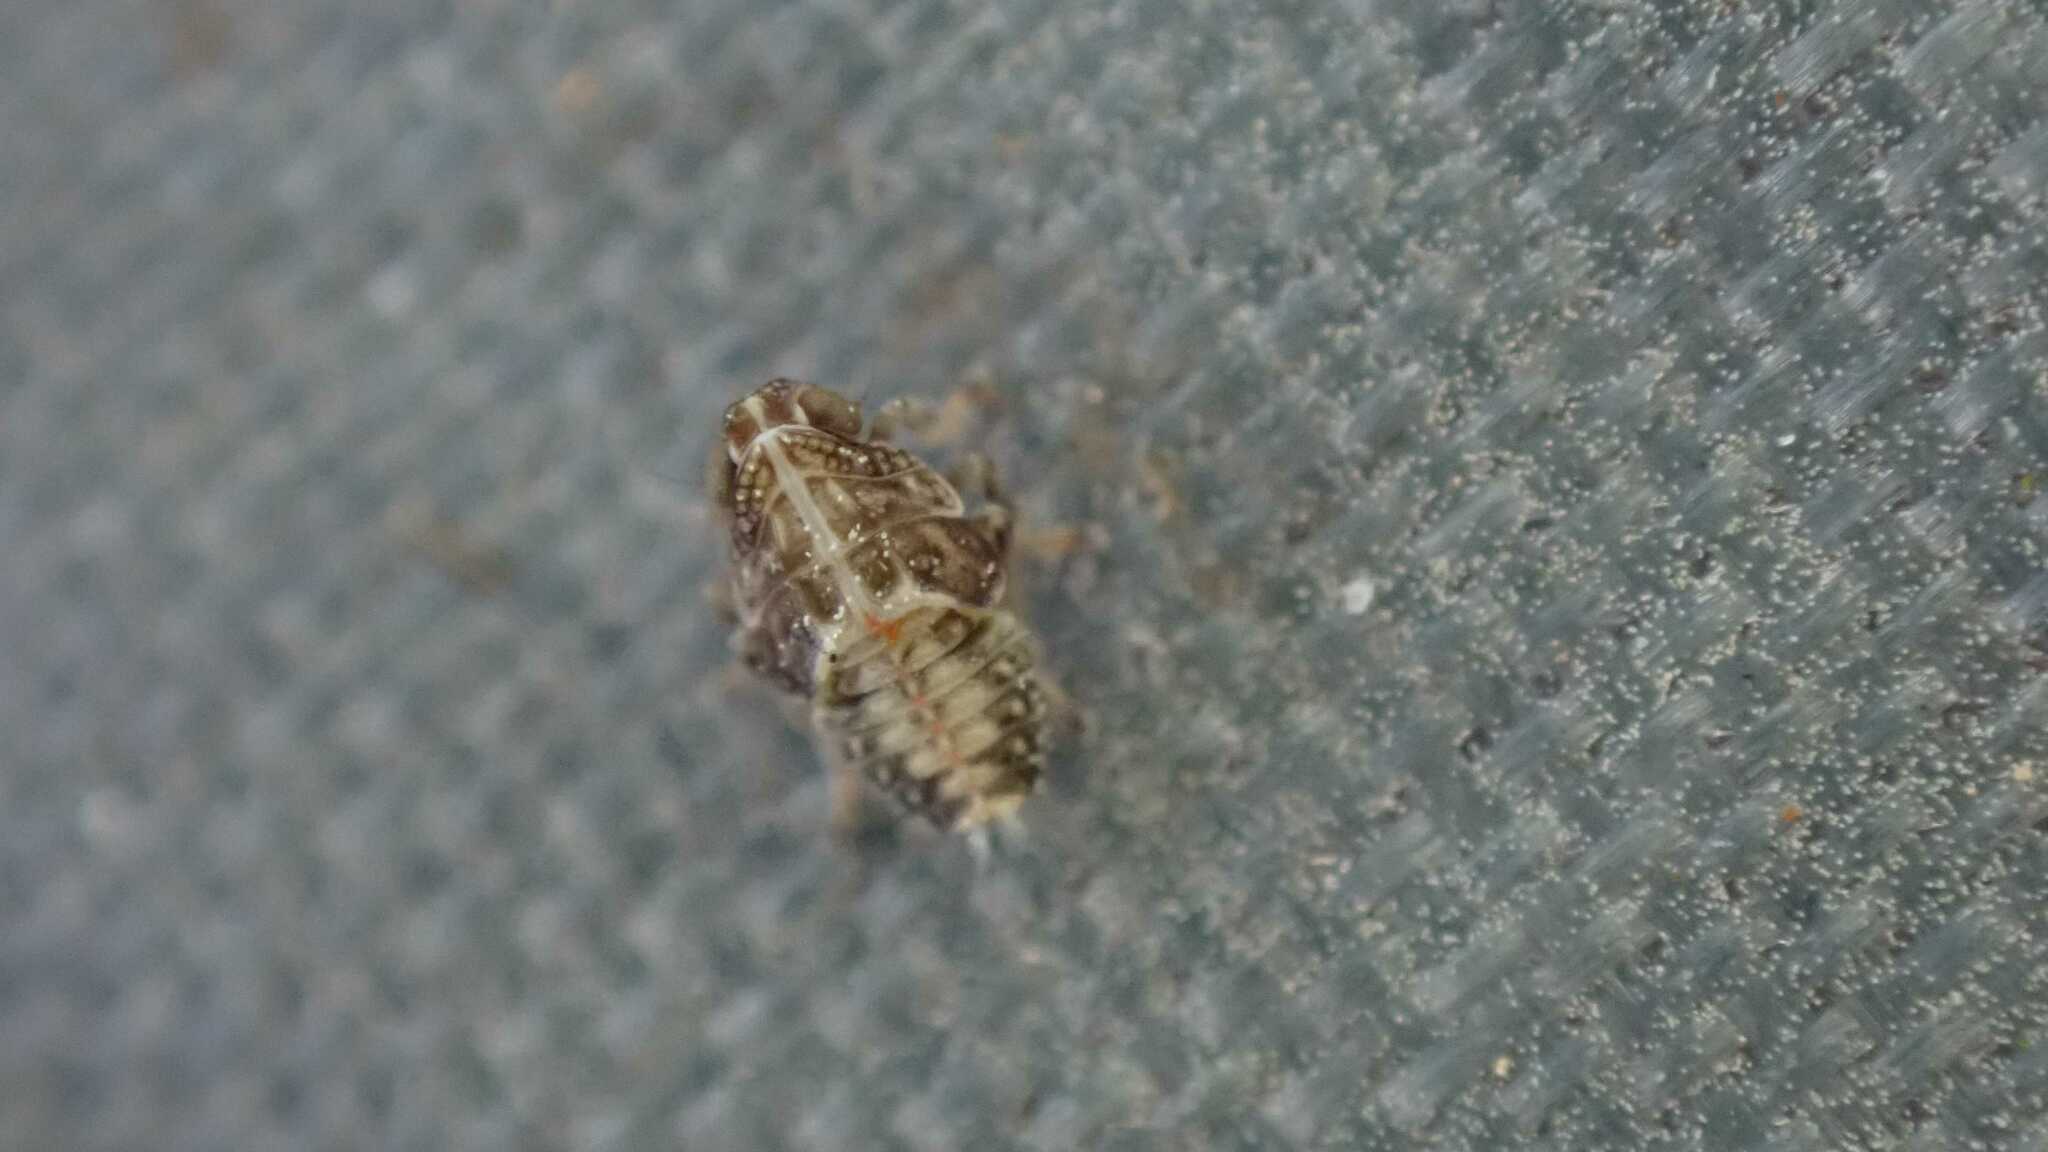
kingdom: Animalia
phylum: Arthropoda
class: Insecta
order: Hemiptera
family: Issidae
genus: Issus
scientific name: Issus
